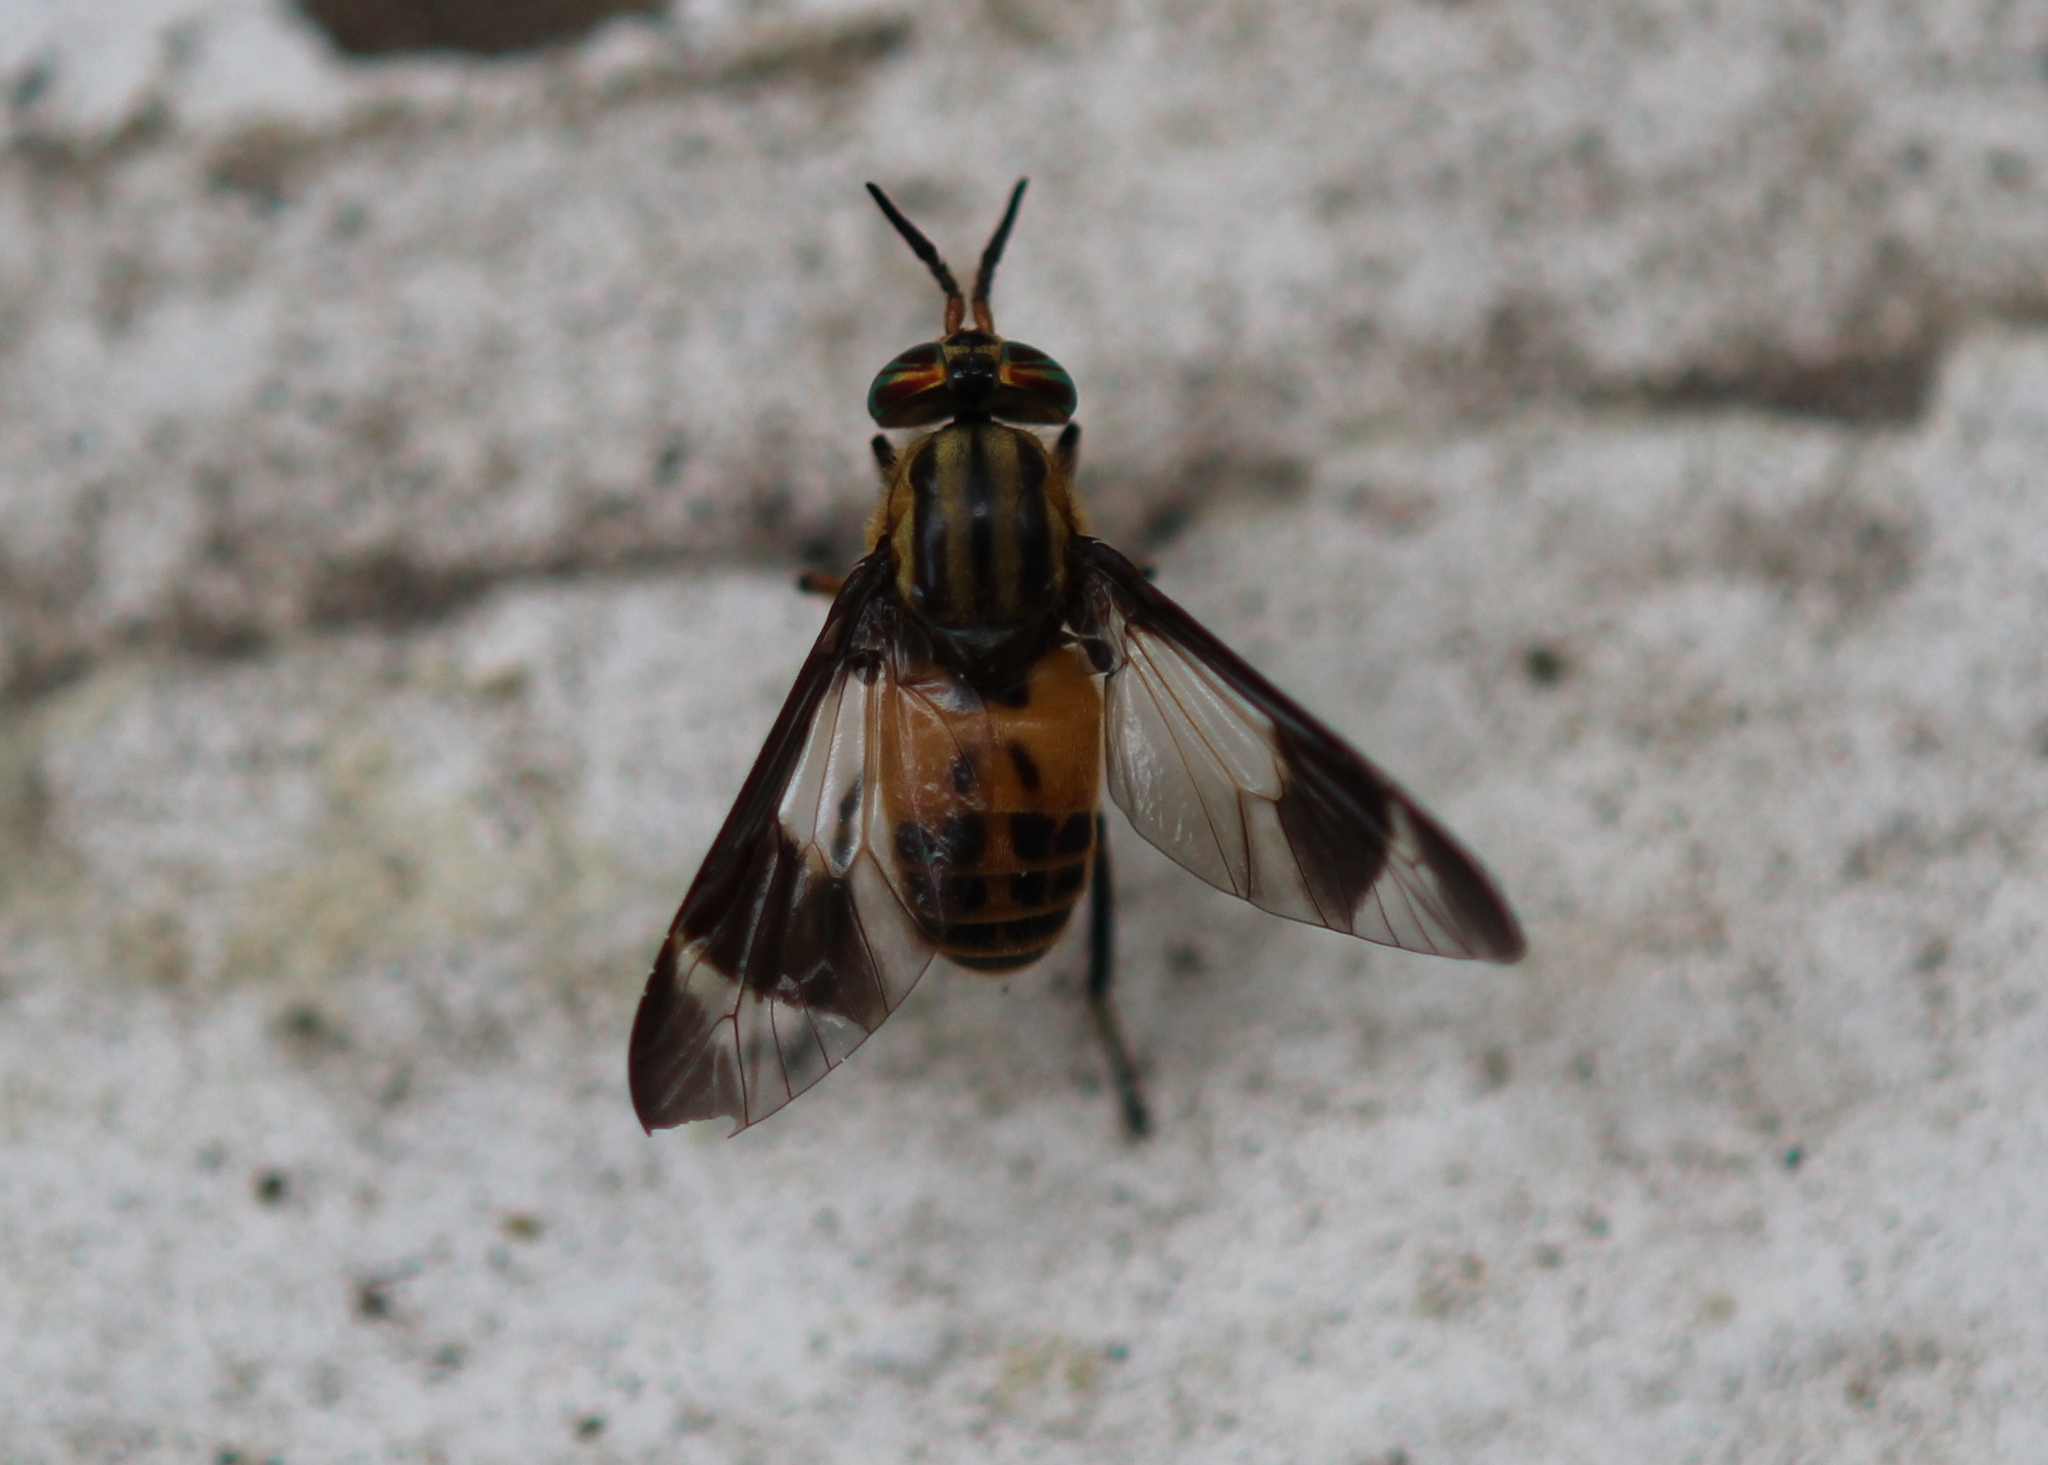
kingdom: Animalia
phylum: Arthropoda
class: Insecta
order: Diptera
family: Tabanidae
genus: Chrysops
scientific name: Chrysops geminatus
